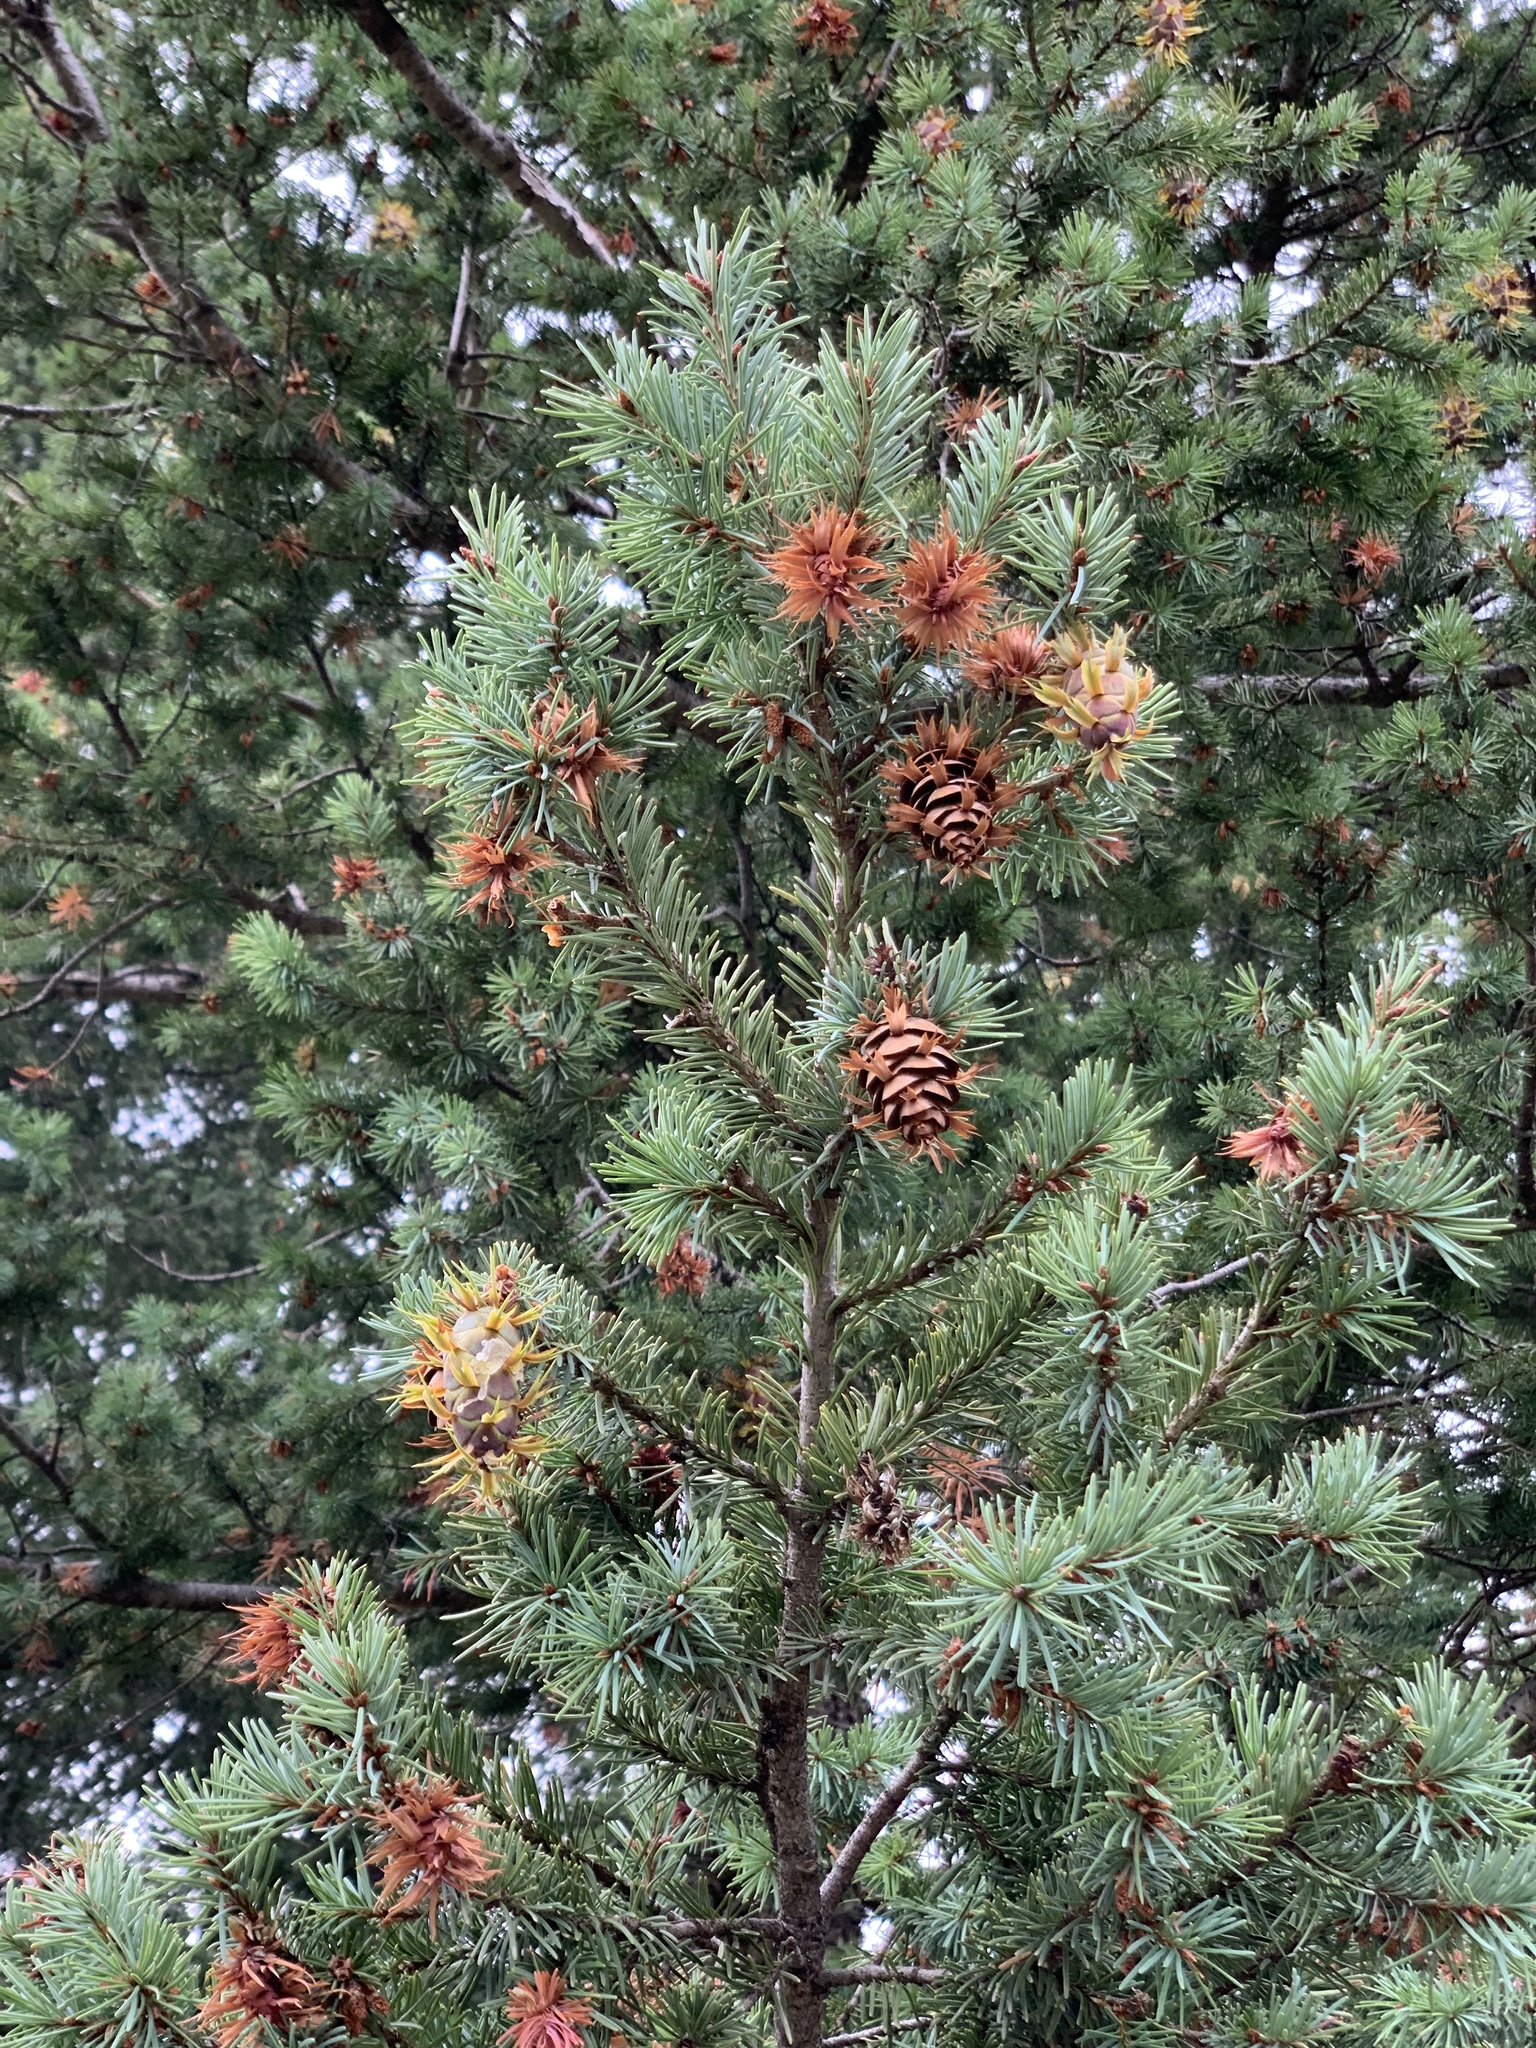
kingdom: Plantae
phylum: Tracheophyta
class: Pinopsida
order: Pinales
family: Pinaceae
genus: Pseudotsuga
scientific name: Pseudotsuga menziesii
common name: Douglas fir
